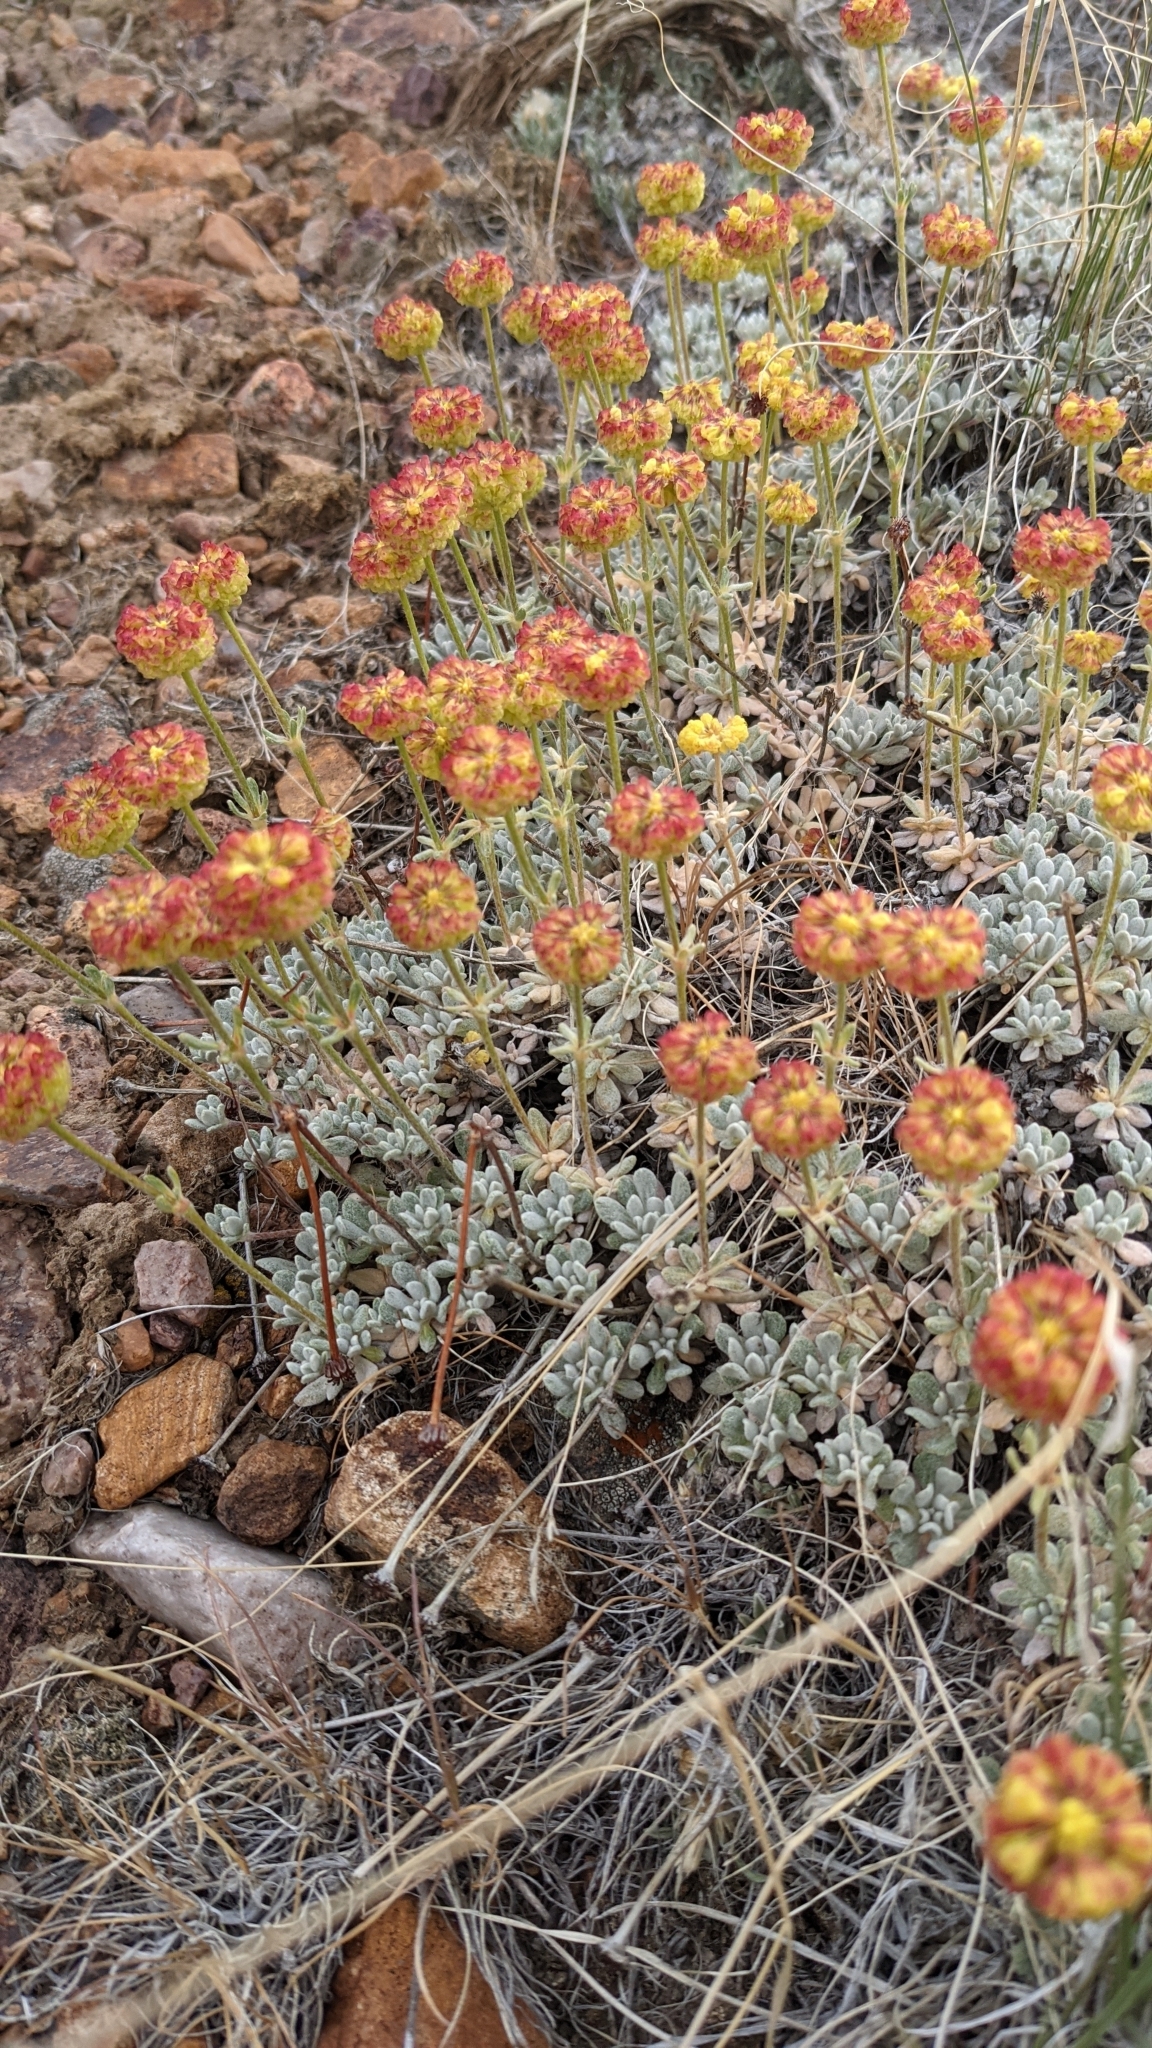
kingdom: Plantae
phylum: Tracheophyta
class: Magnoliopsida
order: Caryophyllales
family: Polygonaceae
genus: Eriogonum
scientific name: Eriogonum douglasii
